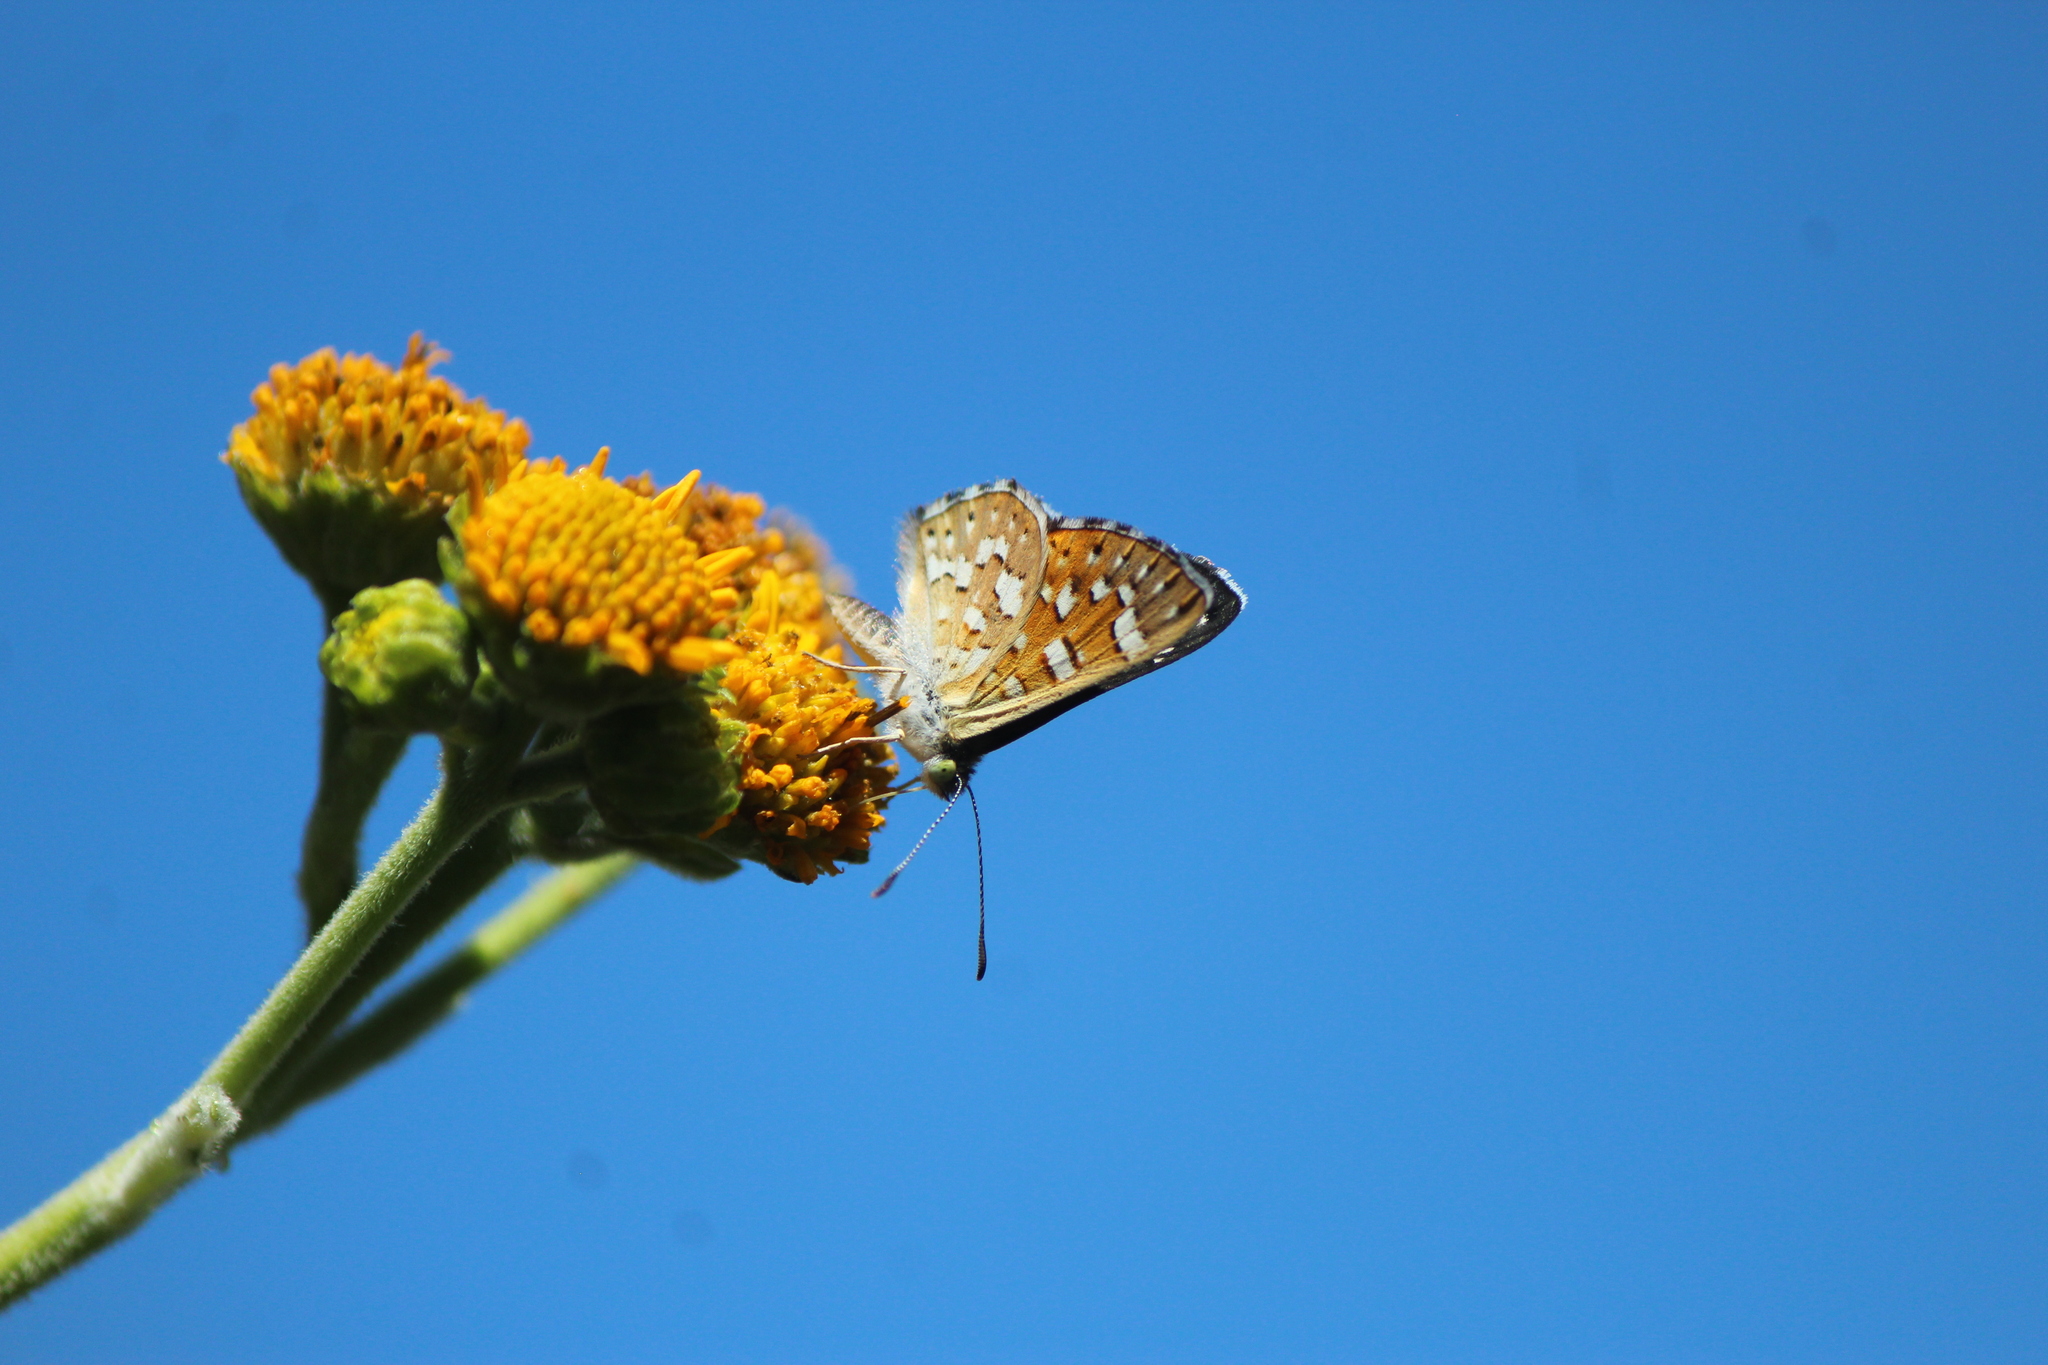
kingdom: Animalia
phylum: Arthropoda
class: Insecta
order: Lepidoptera
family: Riodinidae
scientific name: Riodinidae
